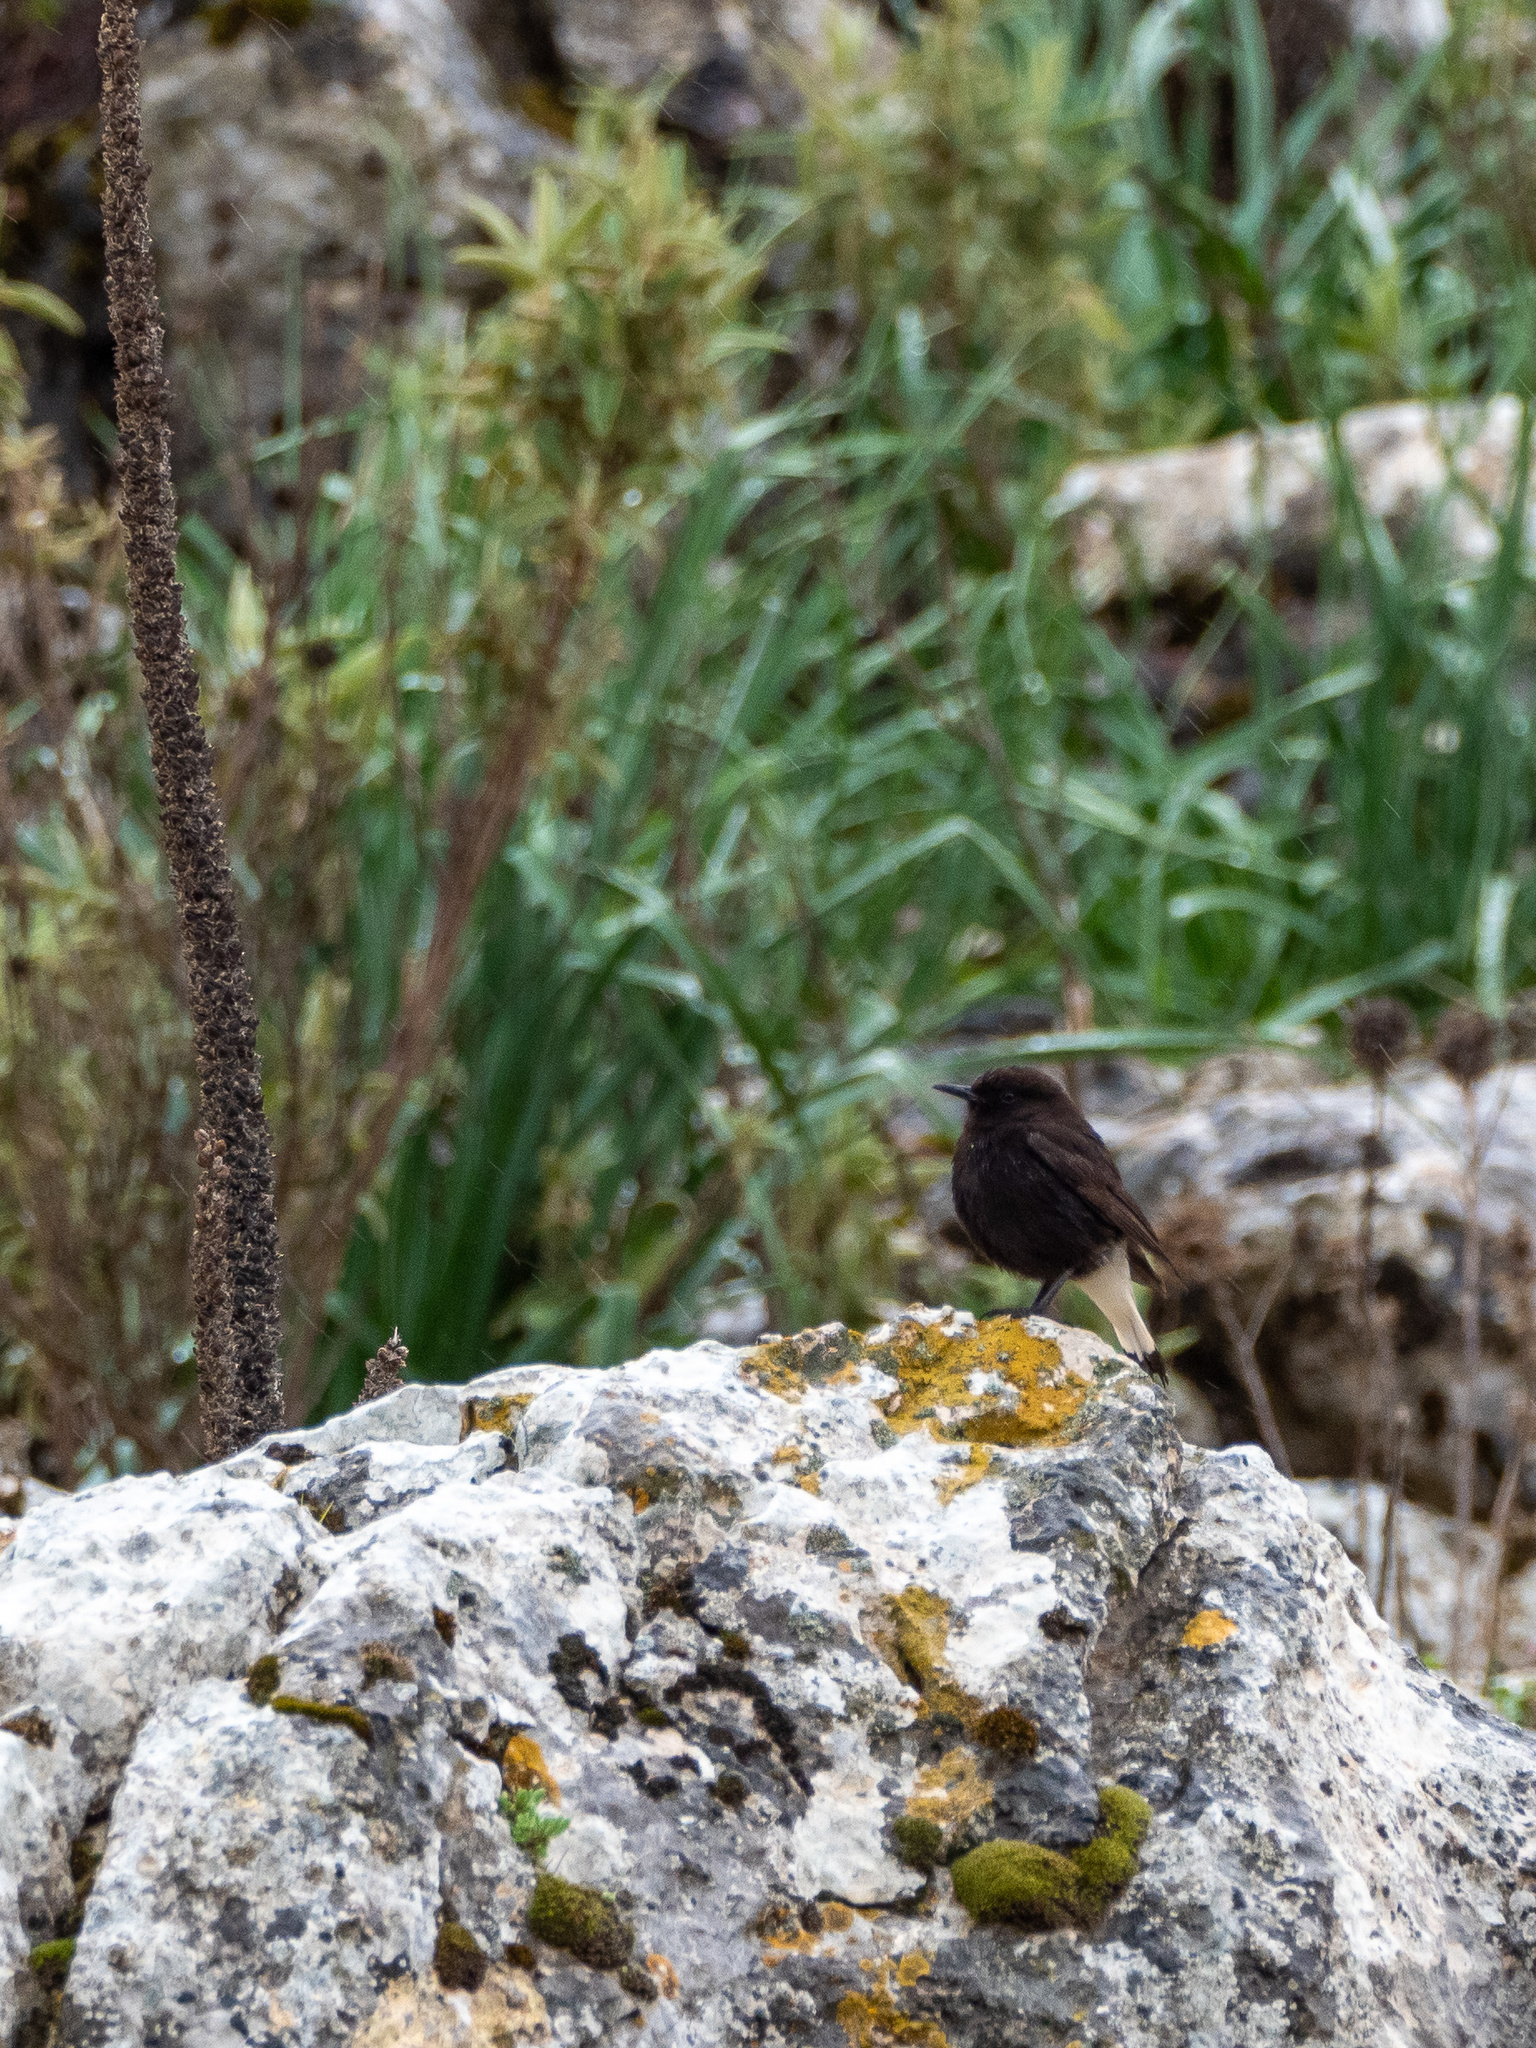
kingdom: Animalia
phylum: Chordata
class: Aves
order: Passeriformes
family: Muscicapidae
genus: Oenanthe
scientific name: Oenanthe leucura
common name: Black wheatear
